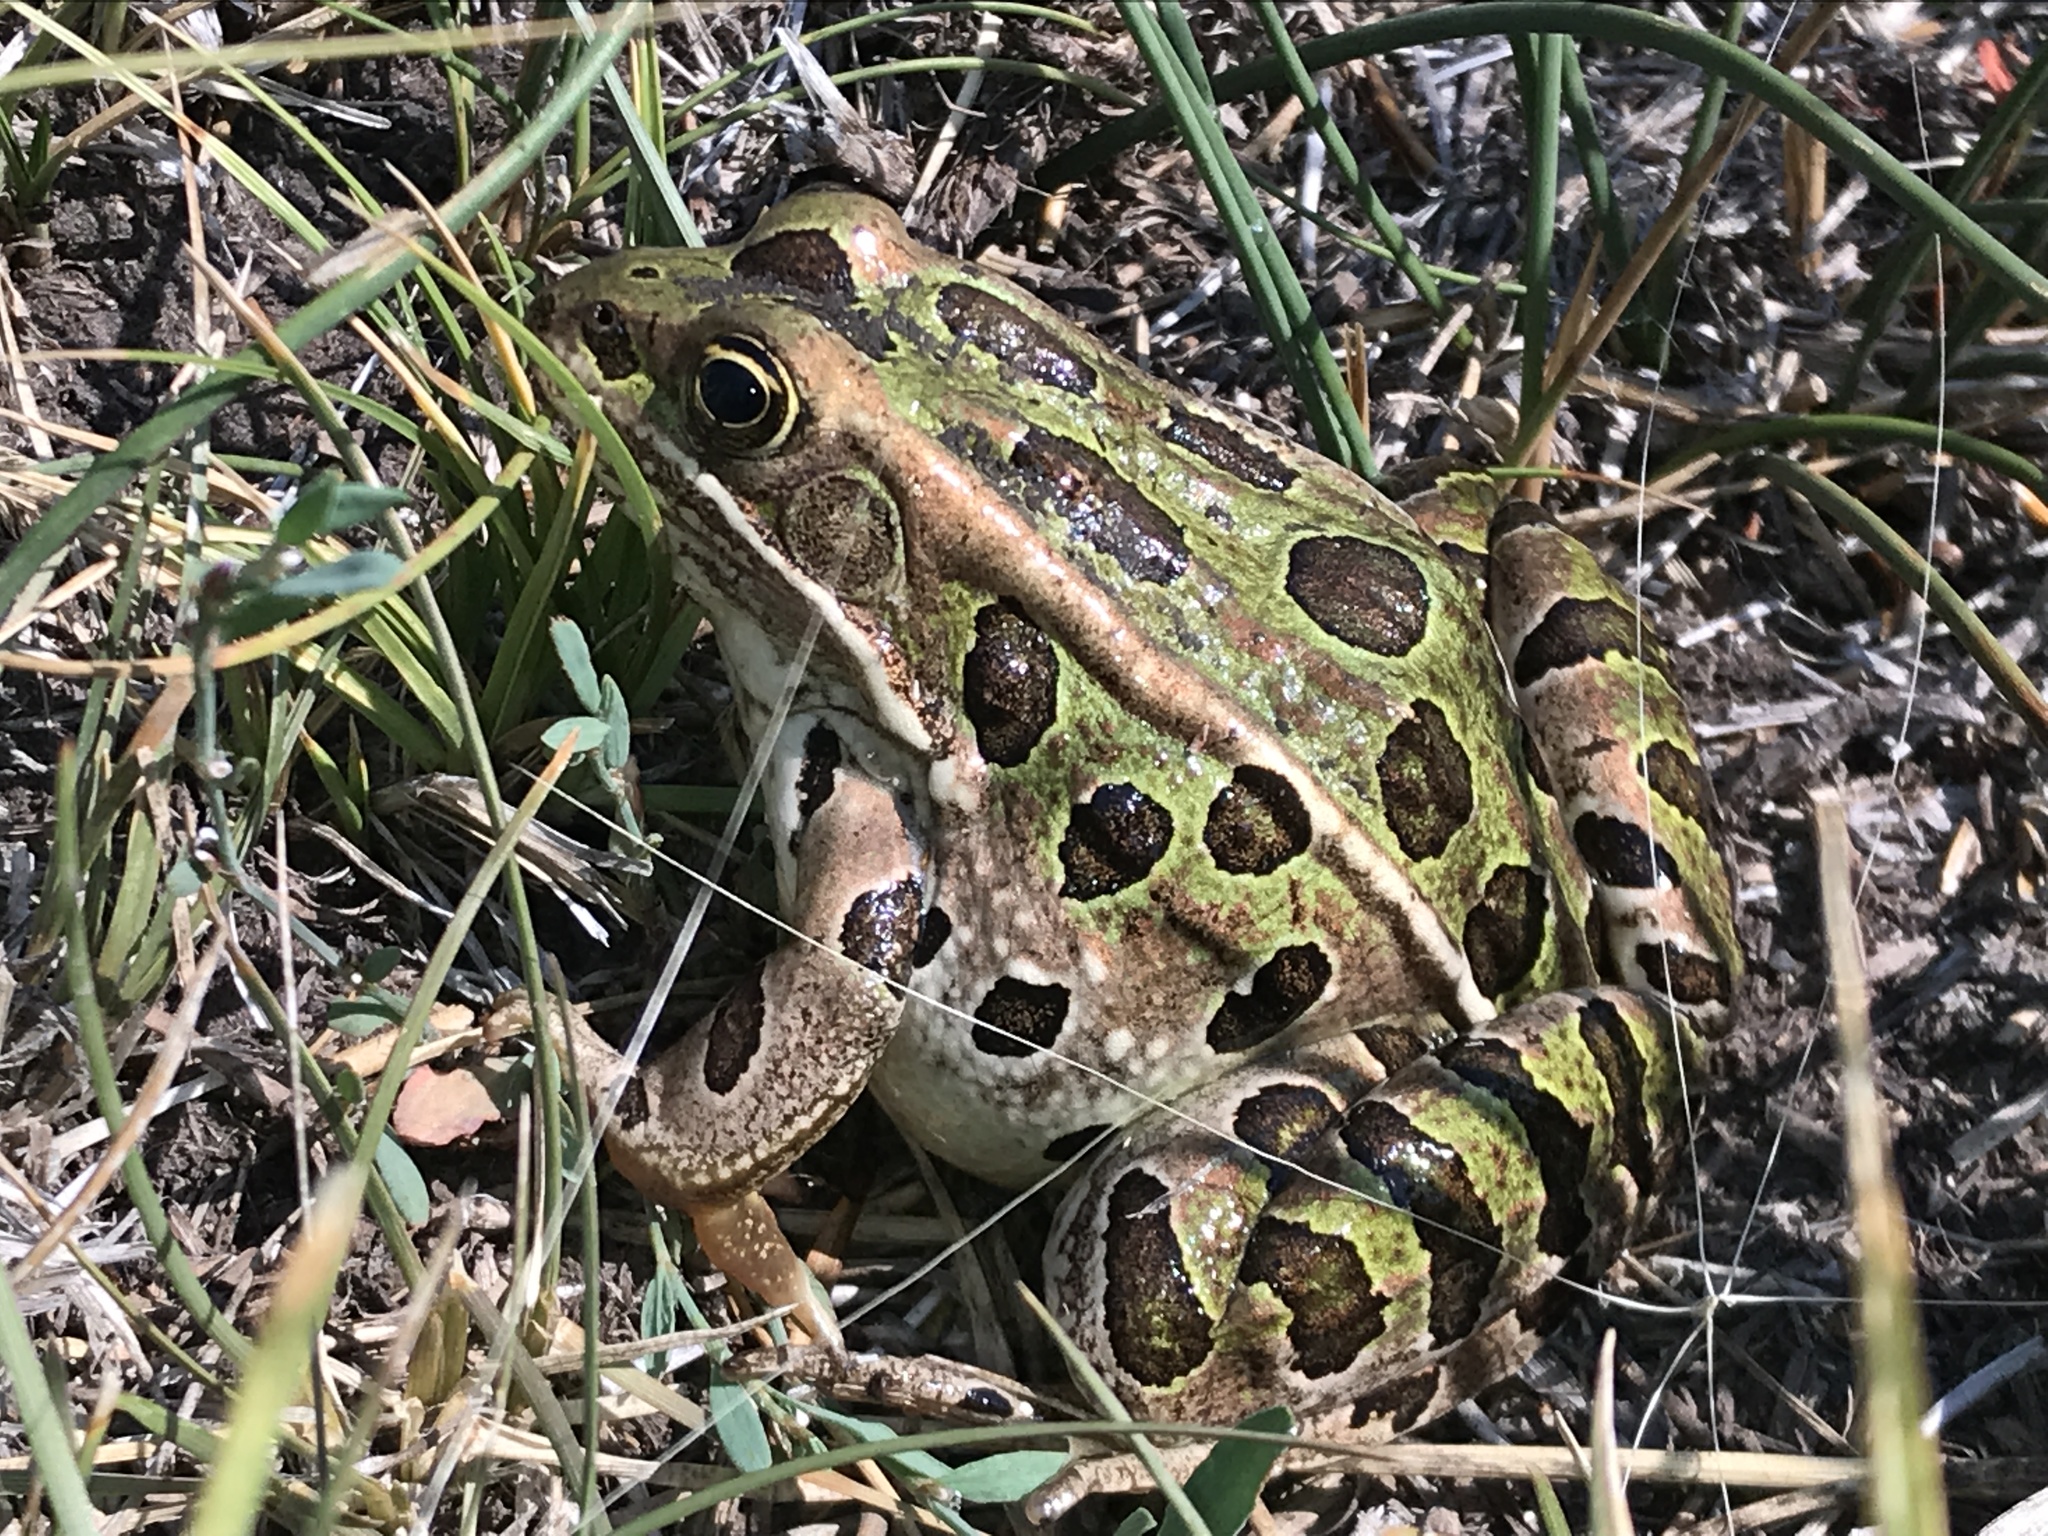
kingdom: Animalia
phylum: Chordata
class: Amphibia
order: Anura
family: Ranidae
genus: Lithobates
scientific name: Lithobates pipiens
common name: Northern leopard frog
